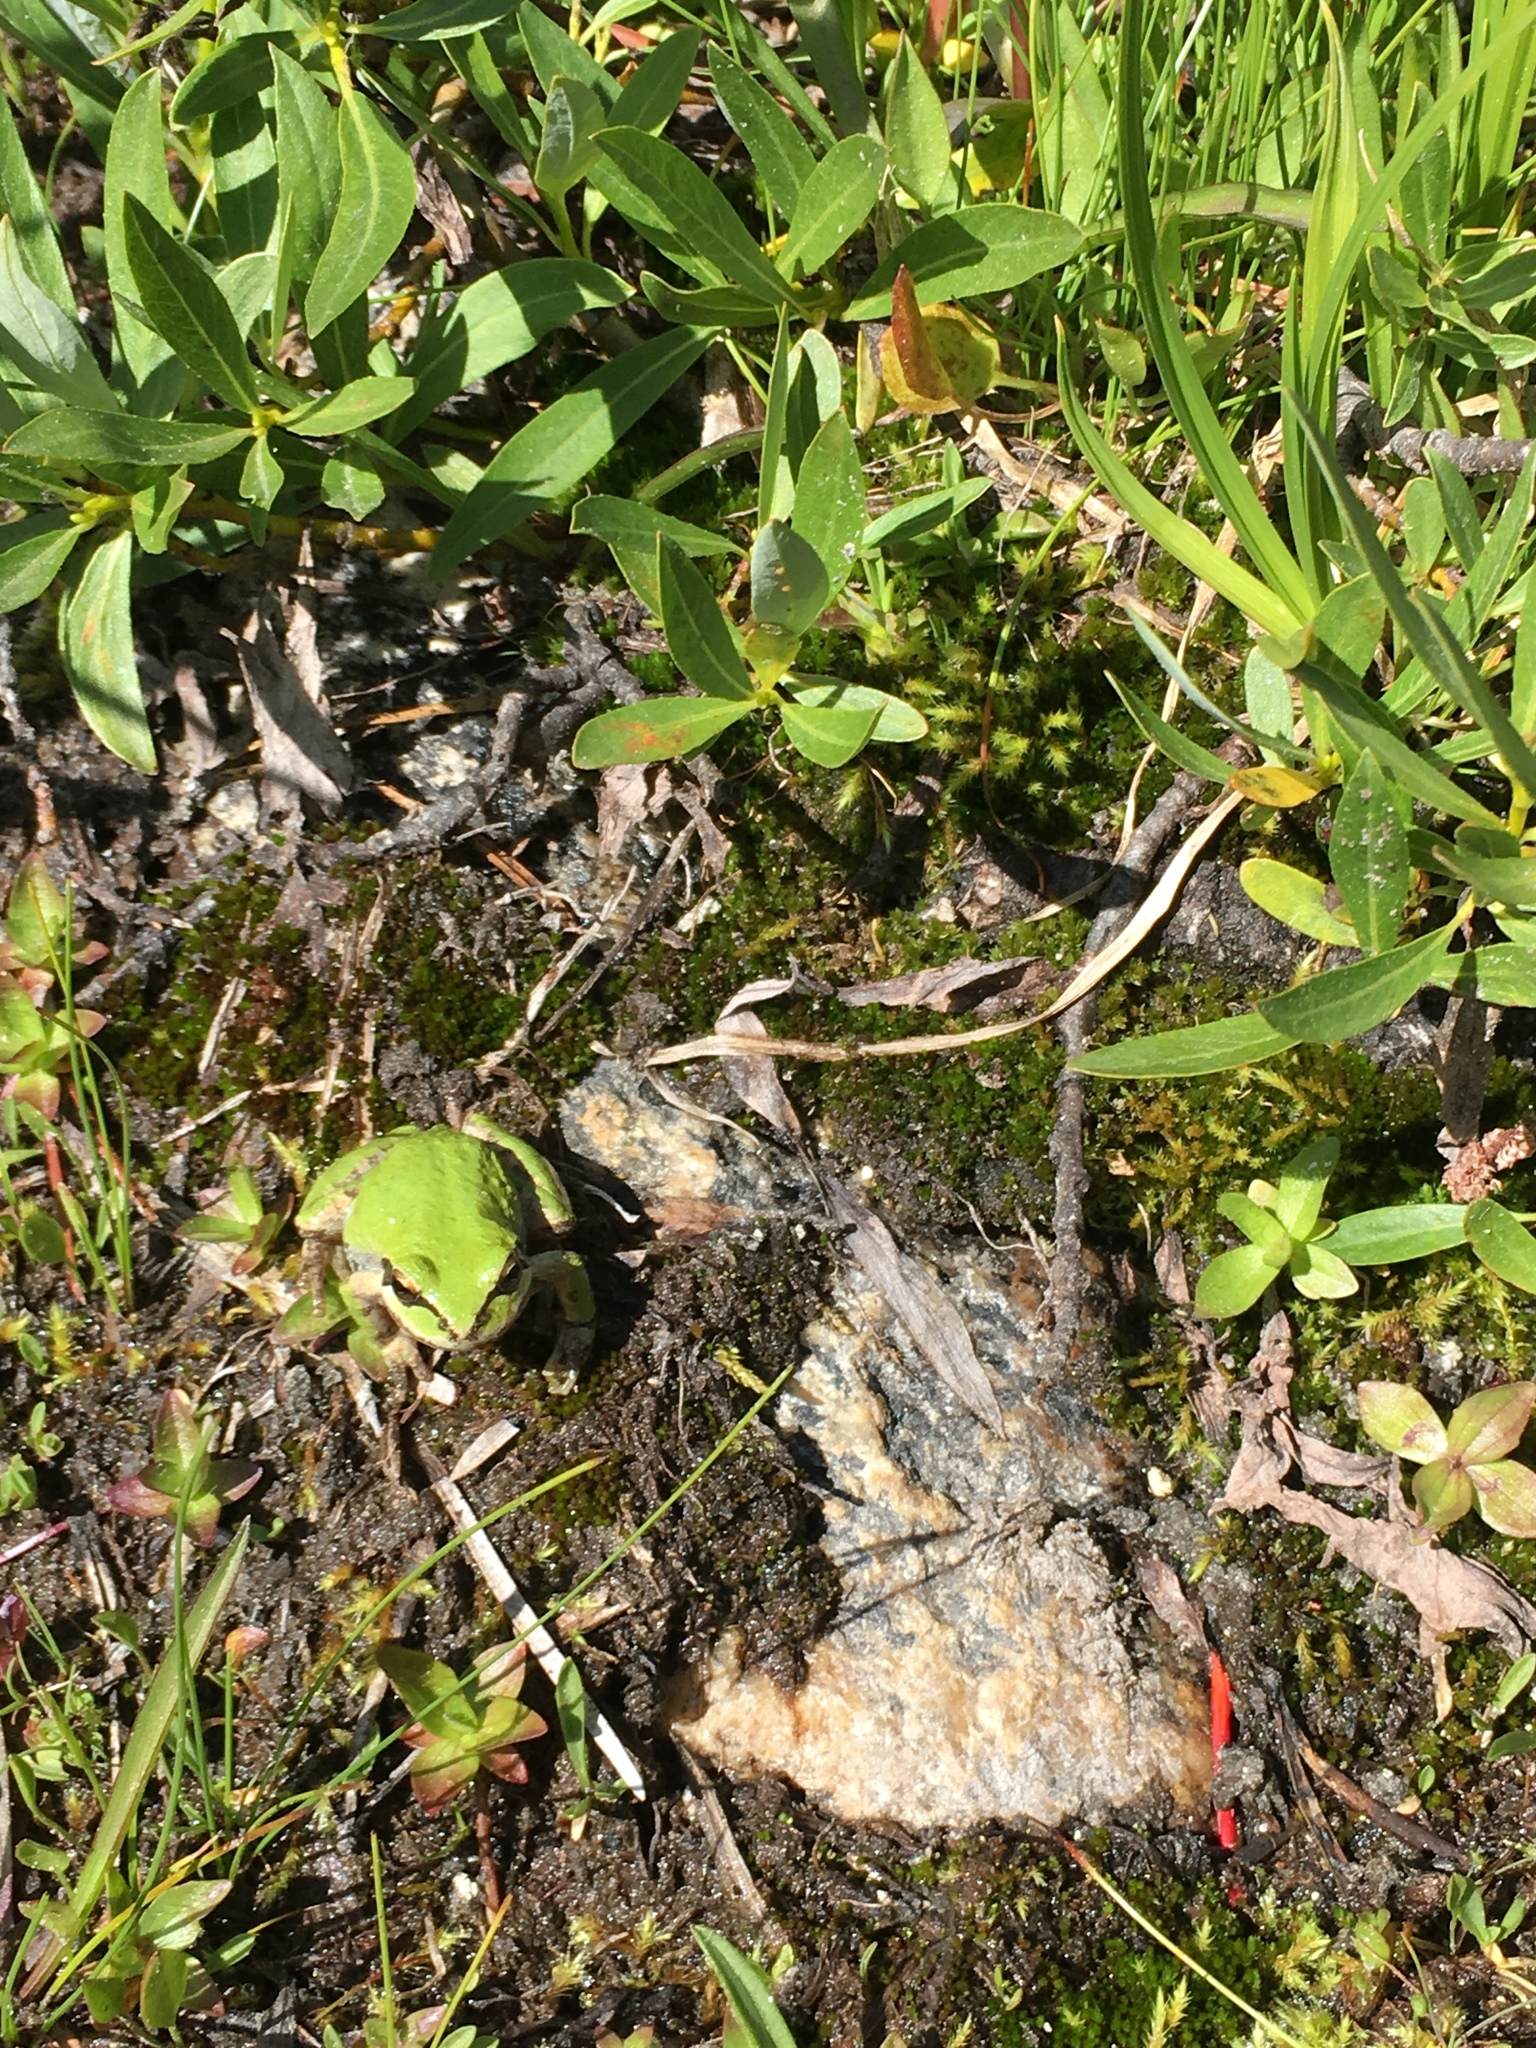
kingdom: Animalia
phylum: Chordata
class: Amphibia
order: Anura
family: Hylidae
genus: Pseudacris
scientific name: Pseudacris regilla
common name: Pacific chorus frog
